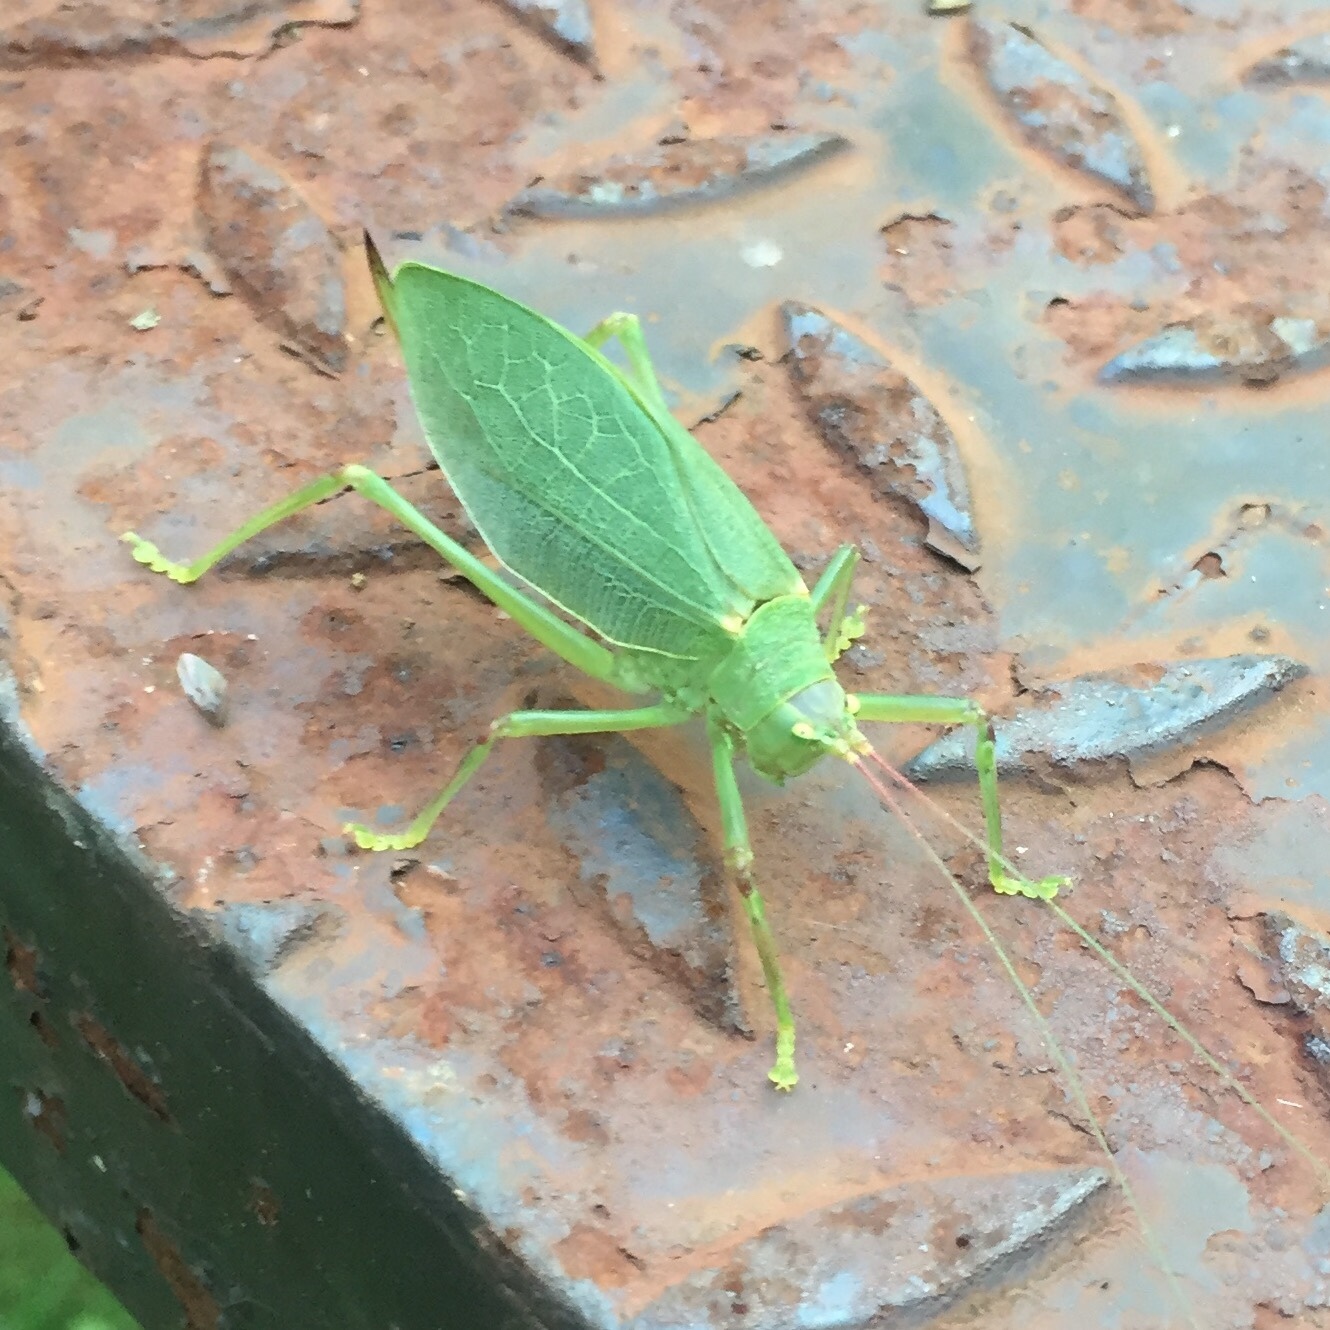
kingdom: Animalia
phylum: Arthropoda
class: Insecta
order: Orthoptera
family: Tettigoniidae
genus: Pterophylla
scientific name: Pterophylla camellifolia
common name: Common true katydid
